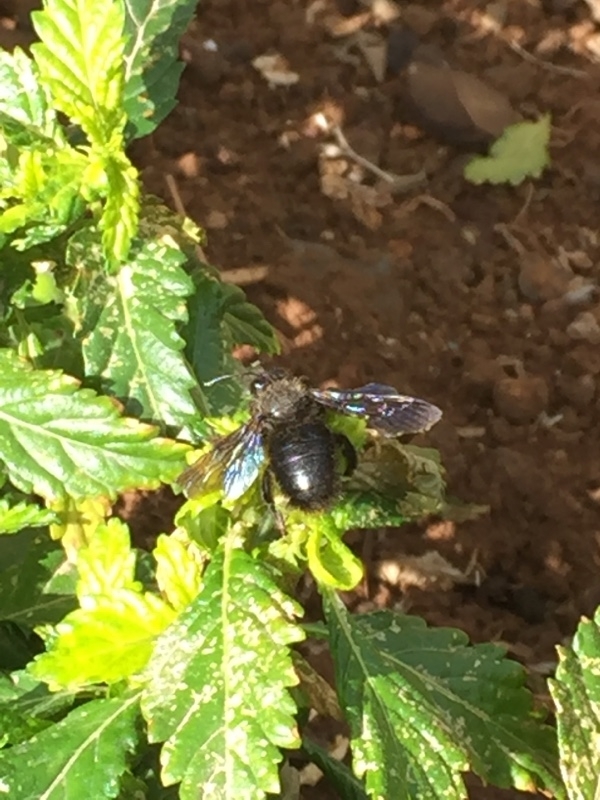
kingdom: Animalia
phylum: Arthropoda
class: Insecta
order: Hymenoptera
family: Apidae
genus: Xylocopa
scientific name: Xylocopa violacea
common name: Violet carpenter bee
